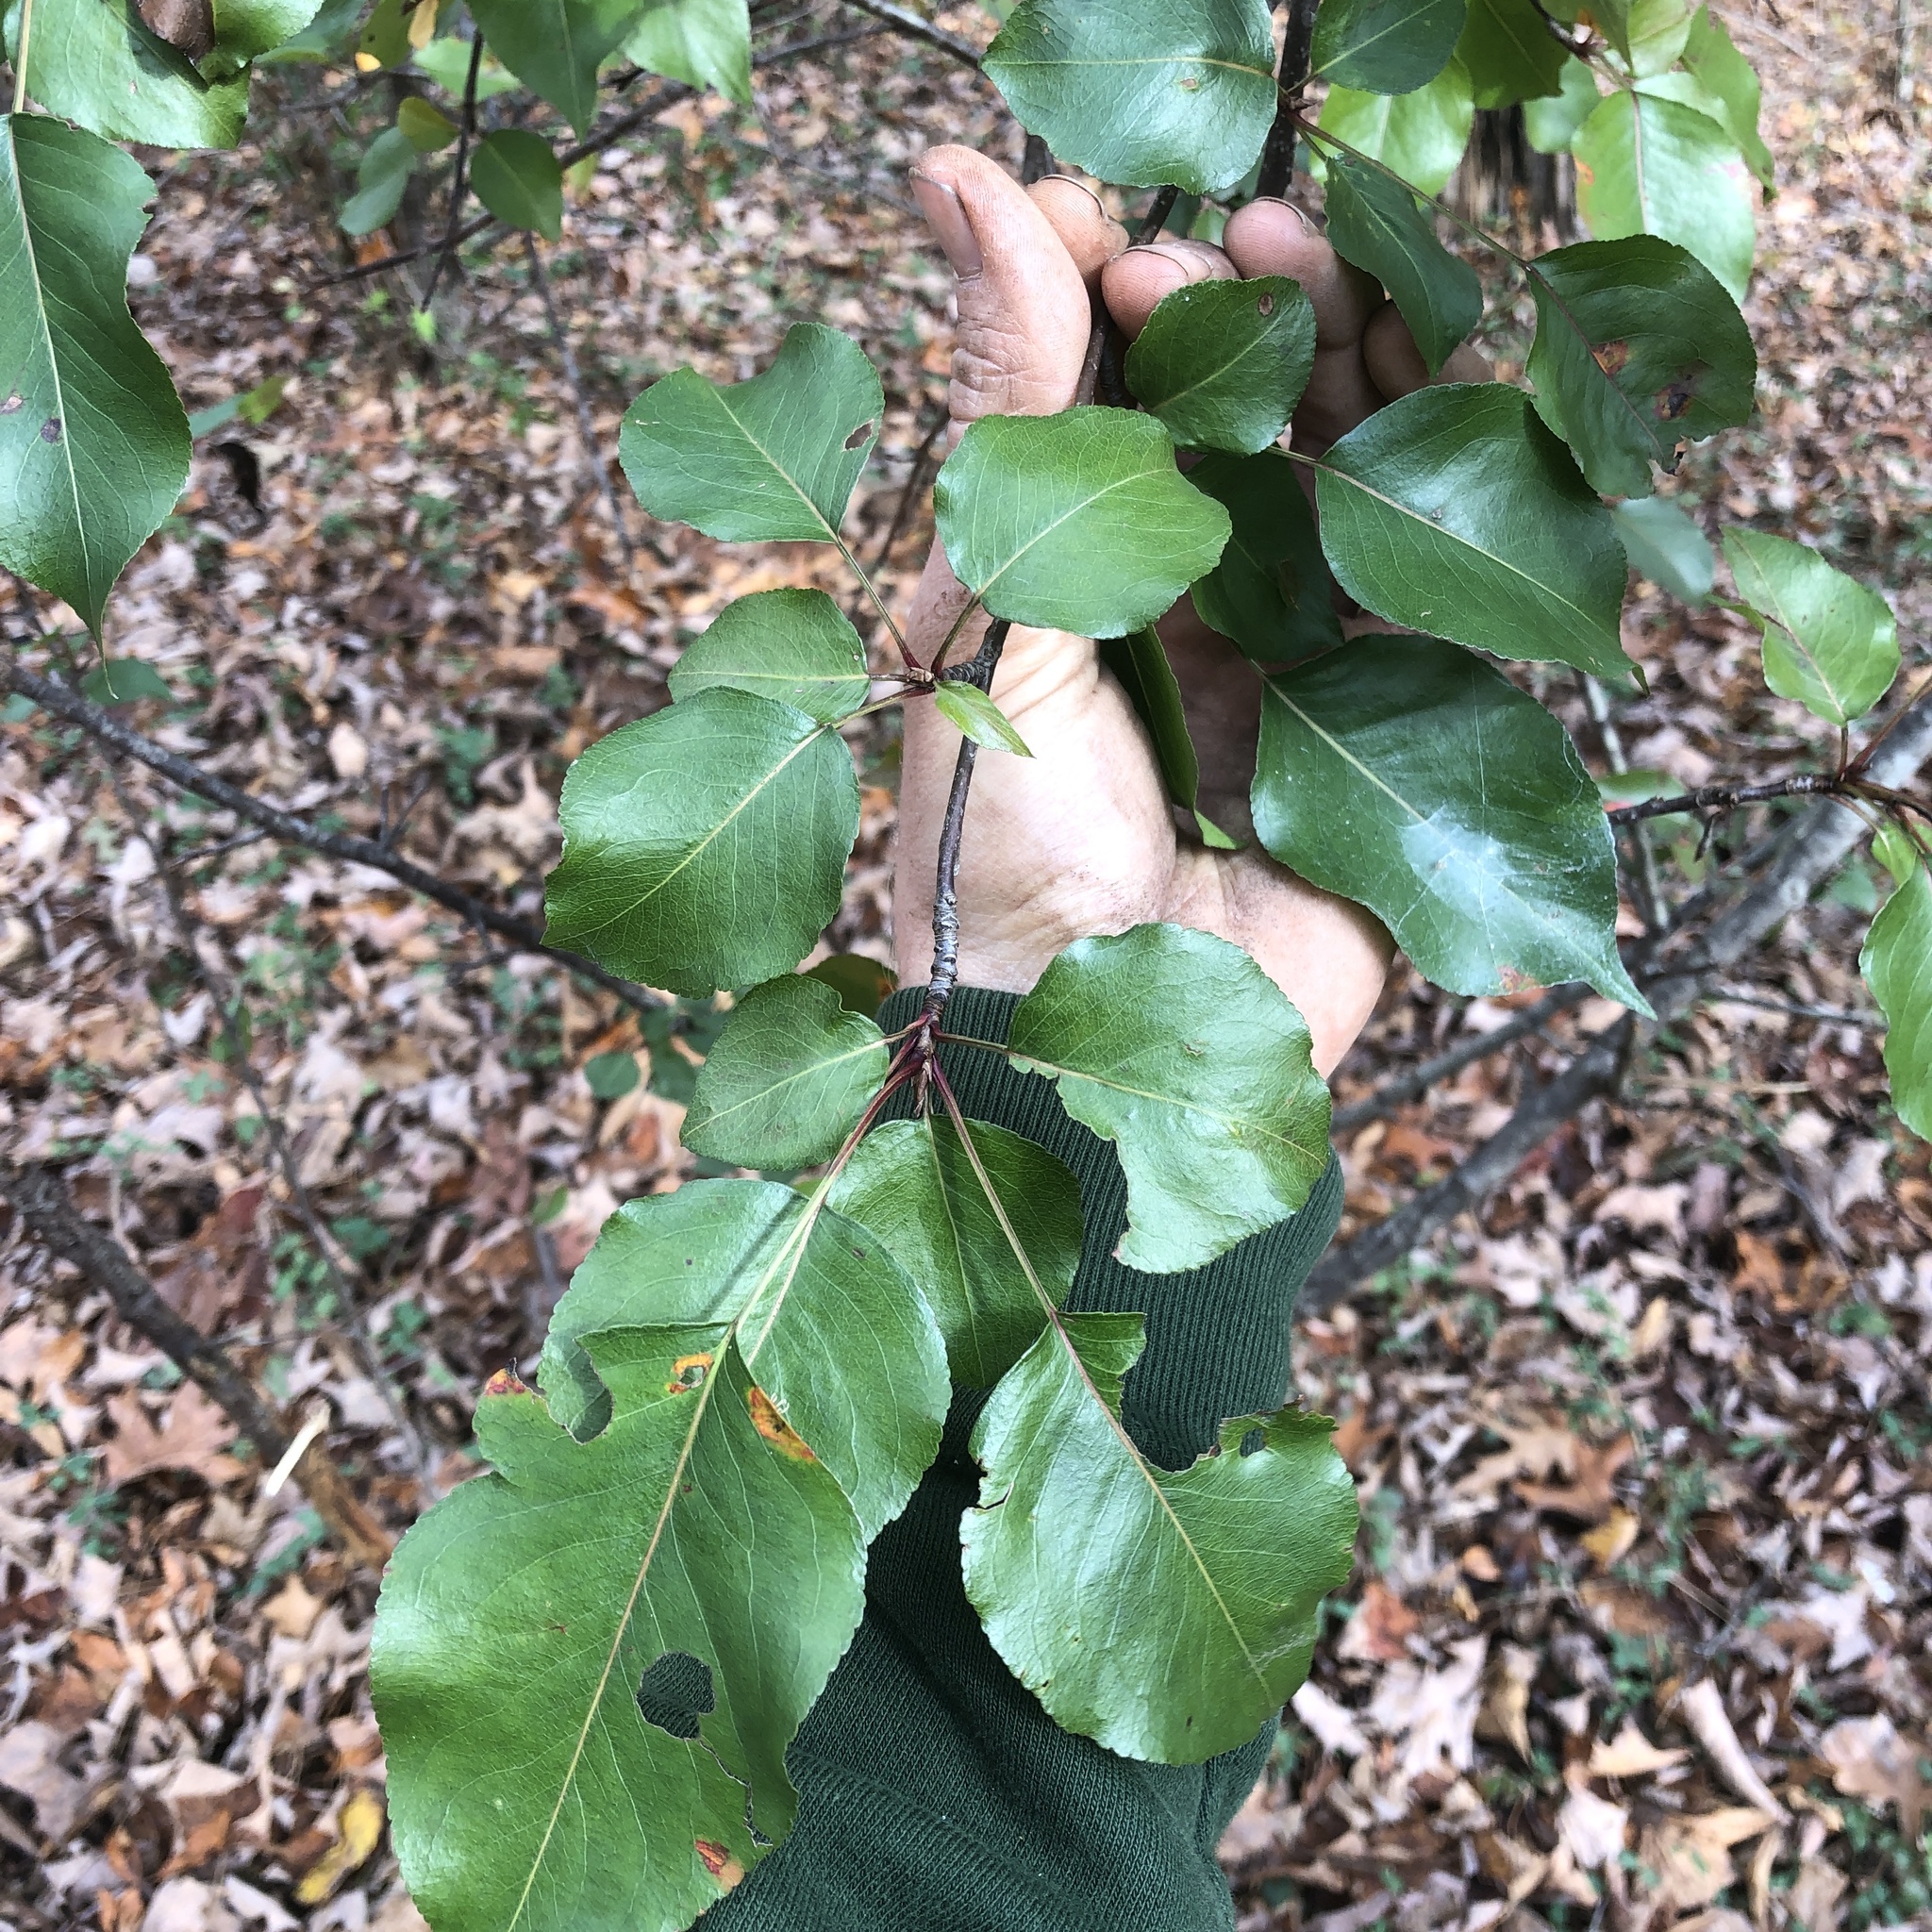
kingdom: Plantae
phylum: Tracheophyta
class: Magnoliopsida
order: Rosales
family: Rosaceae
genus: Pyrus
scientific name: Pyrus calleryana
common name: Callery pear
